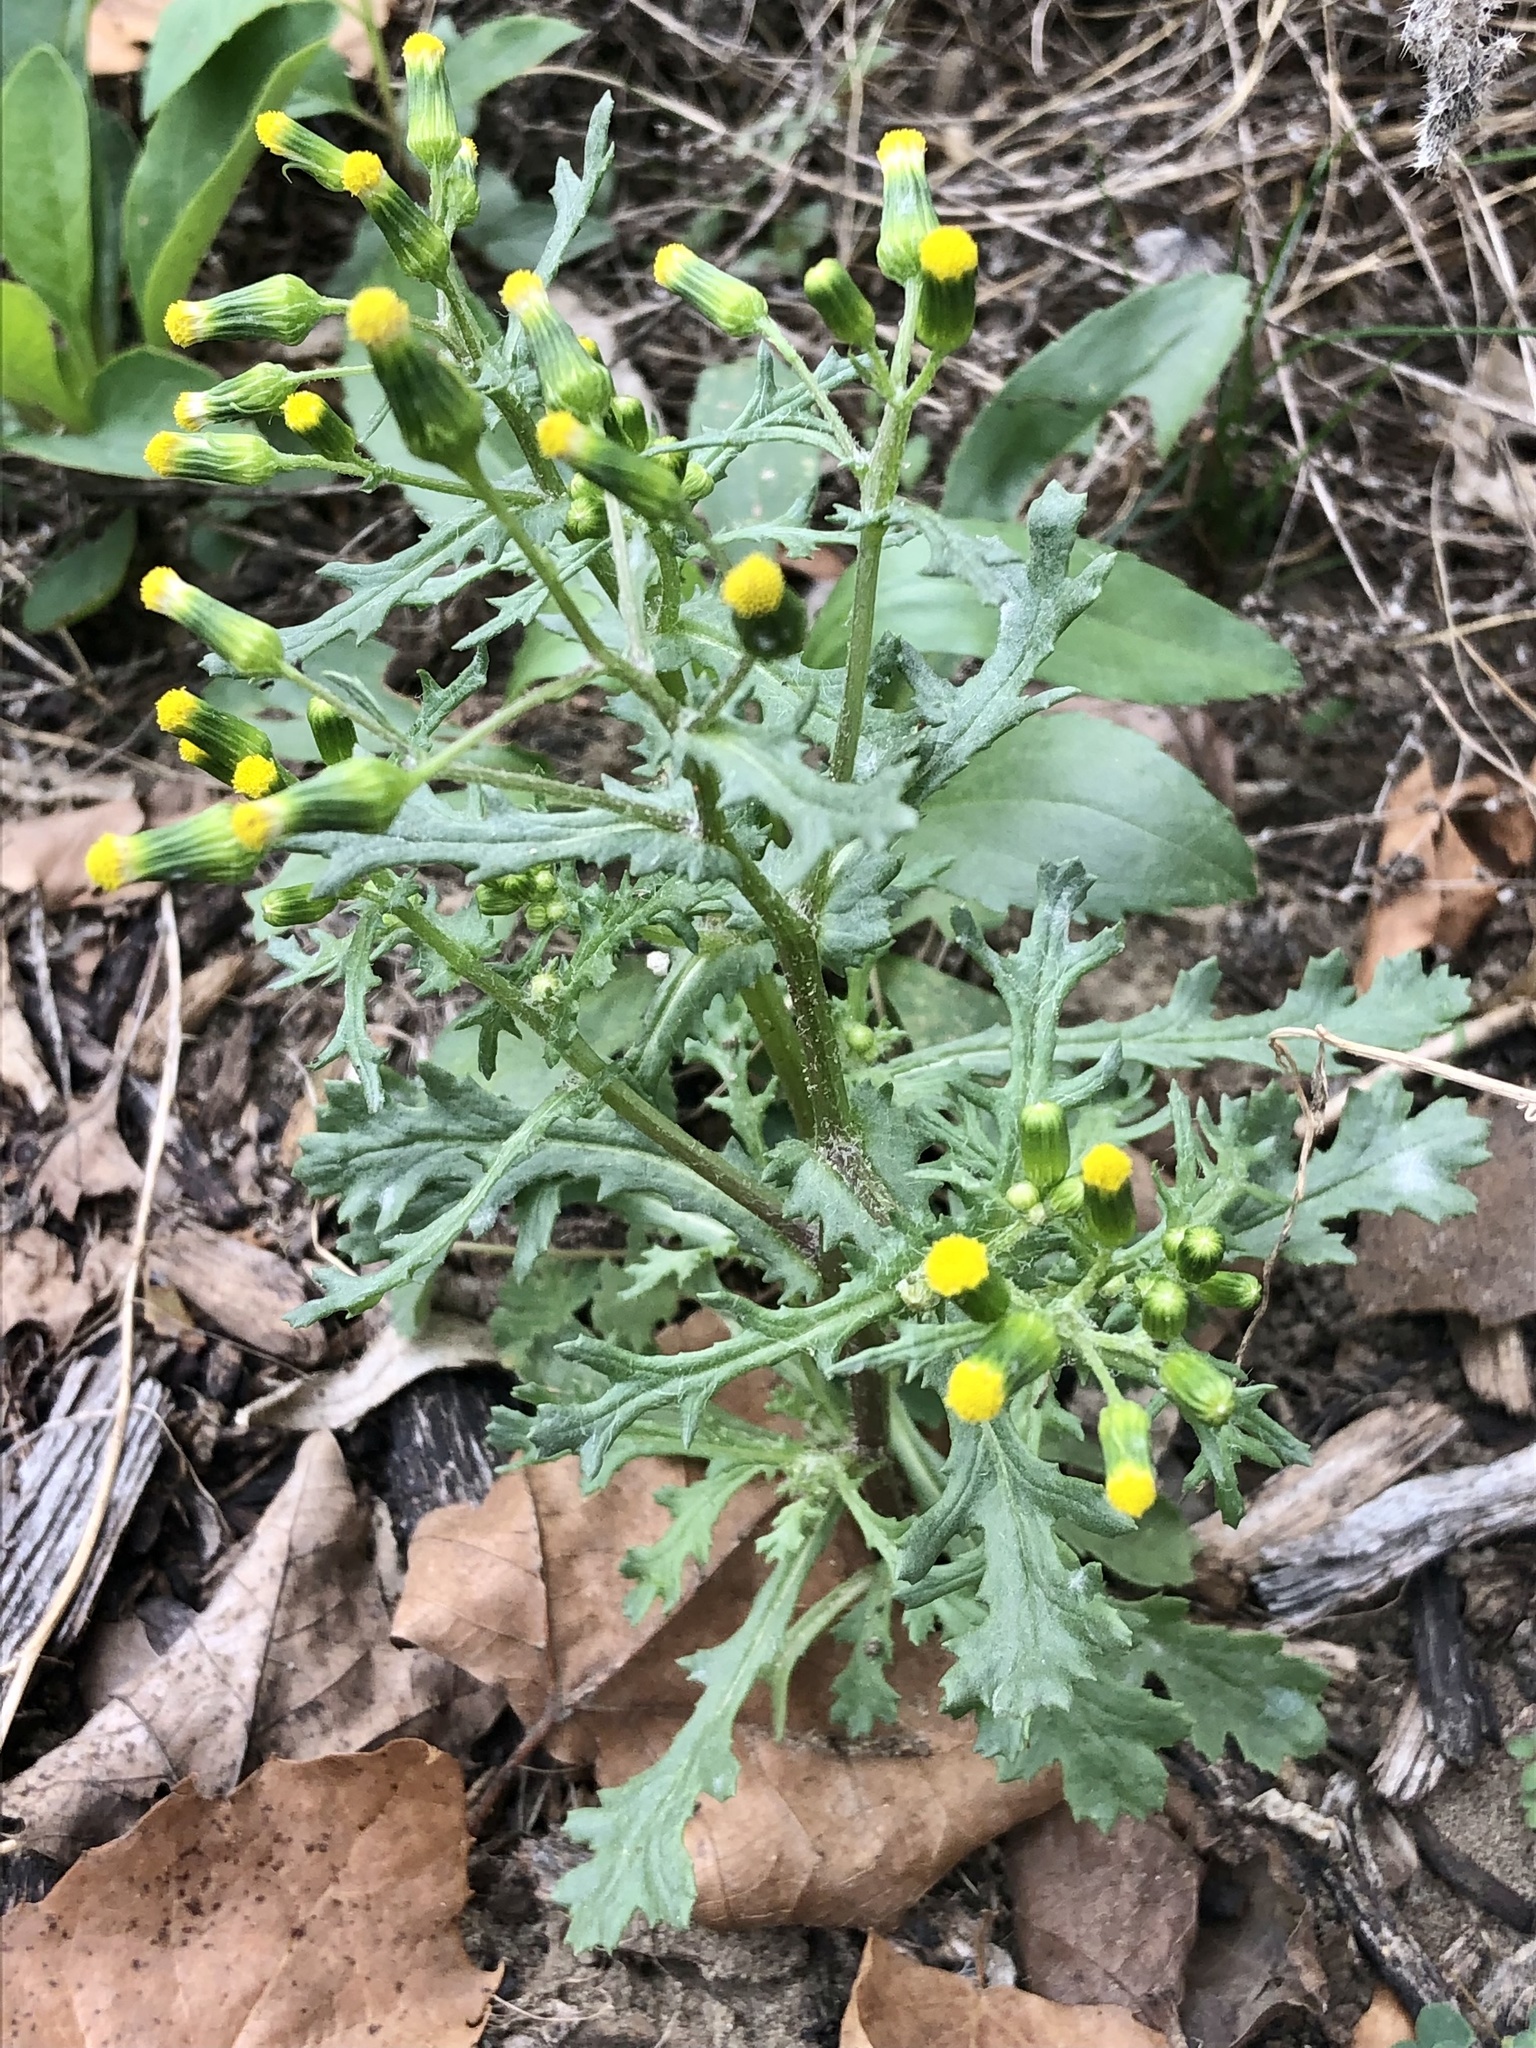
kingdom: Plantae
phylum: Tracheophyta
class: Magnoliopsida
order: Asterales
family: Asteraceae
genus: Senecio
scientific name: Senecio vulgaris
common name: Old-man-in-the-spring
